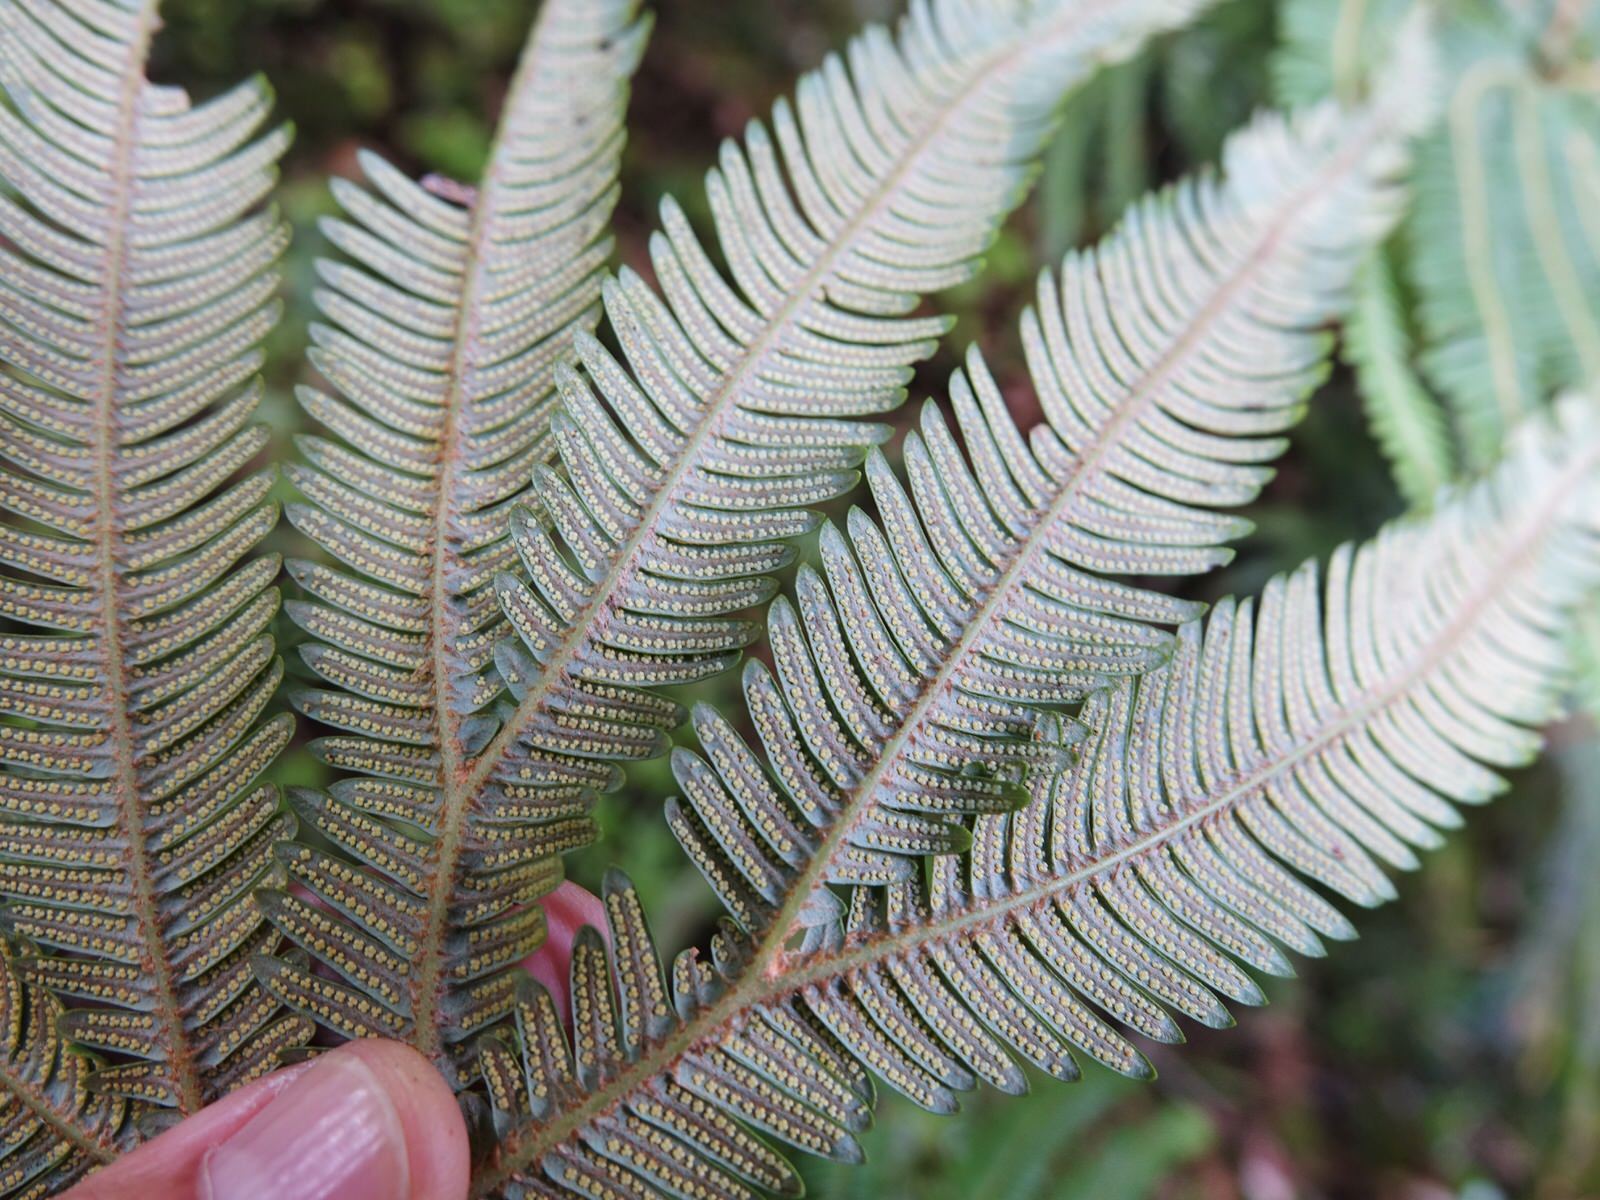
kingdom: Plantae
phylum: Tracheophyta
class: Polypodiopsida
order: Gleicheniales
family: Gleicheniaceae
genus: Sticherus
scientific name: Sticherus cunninghamii
